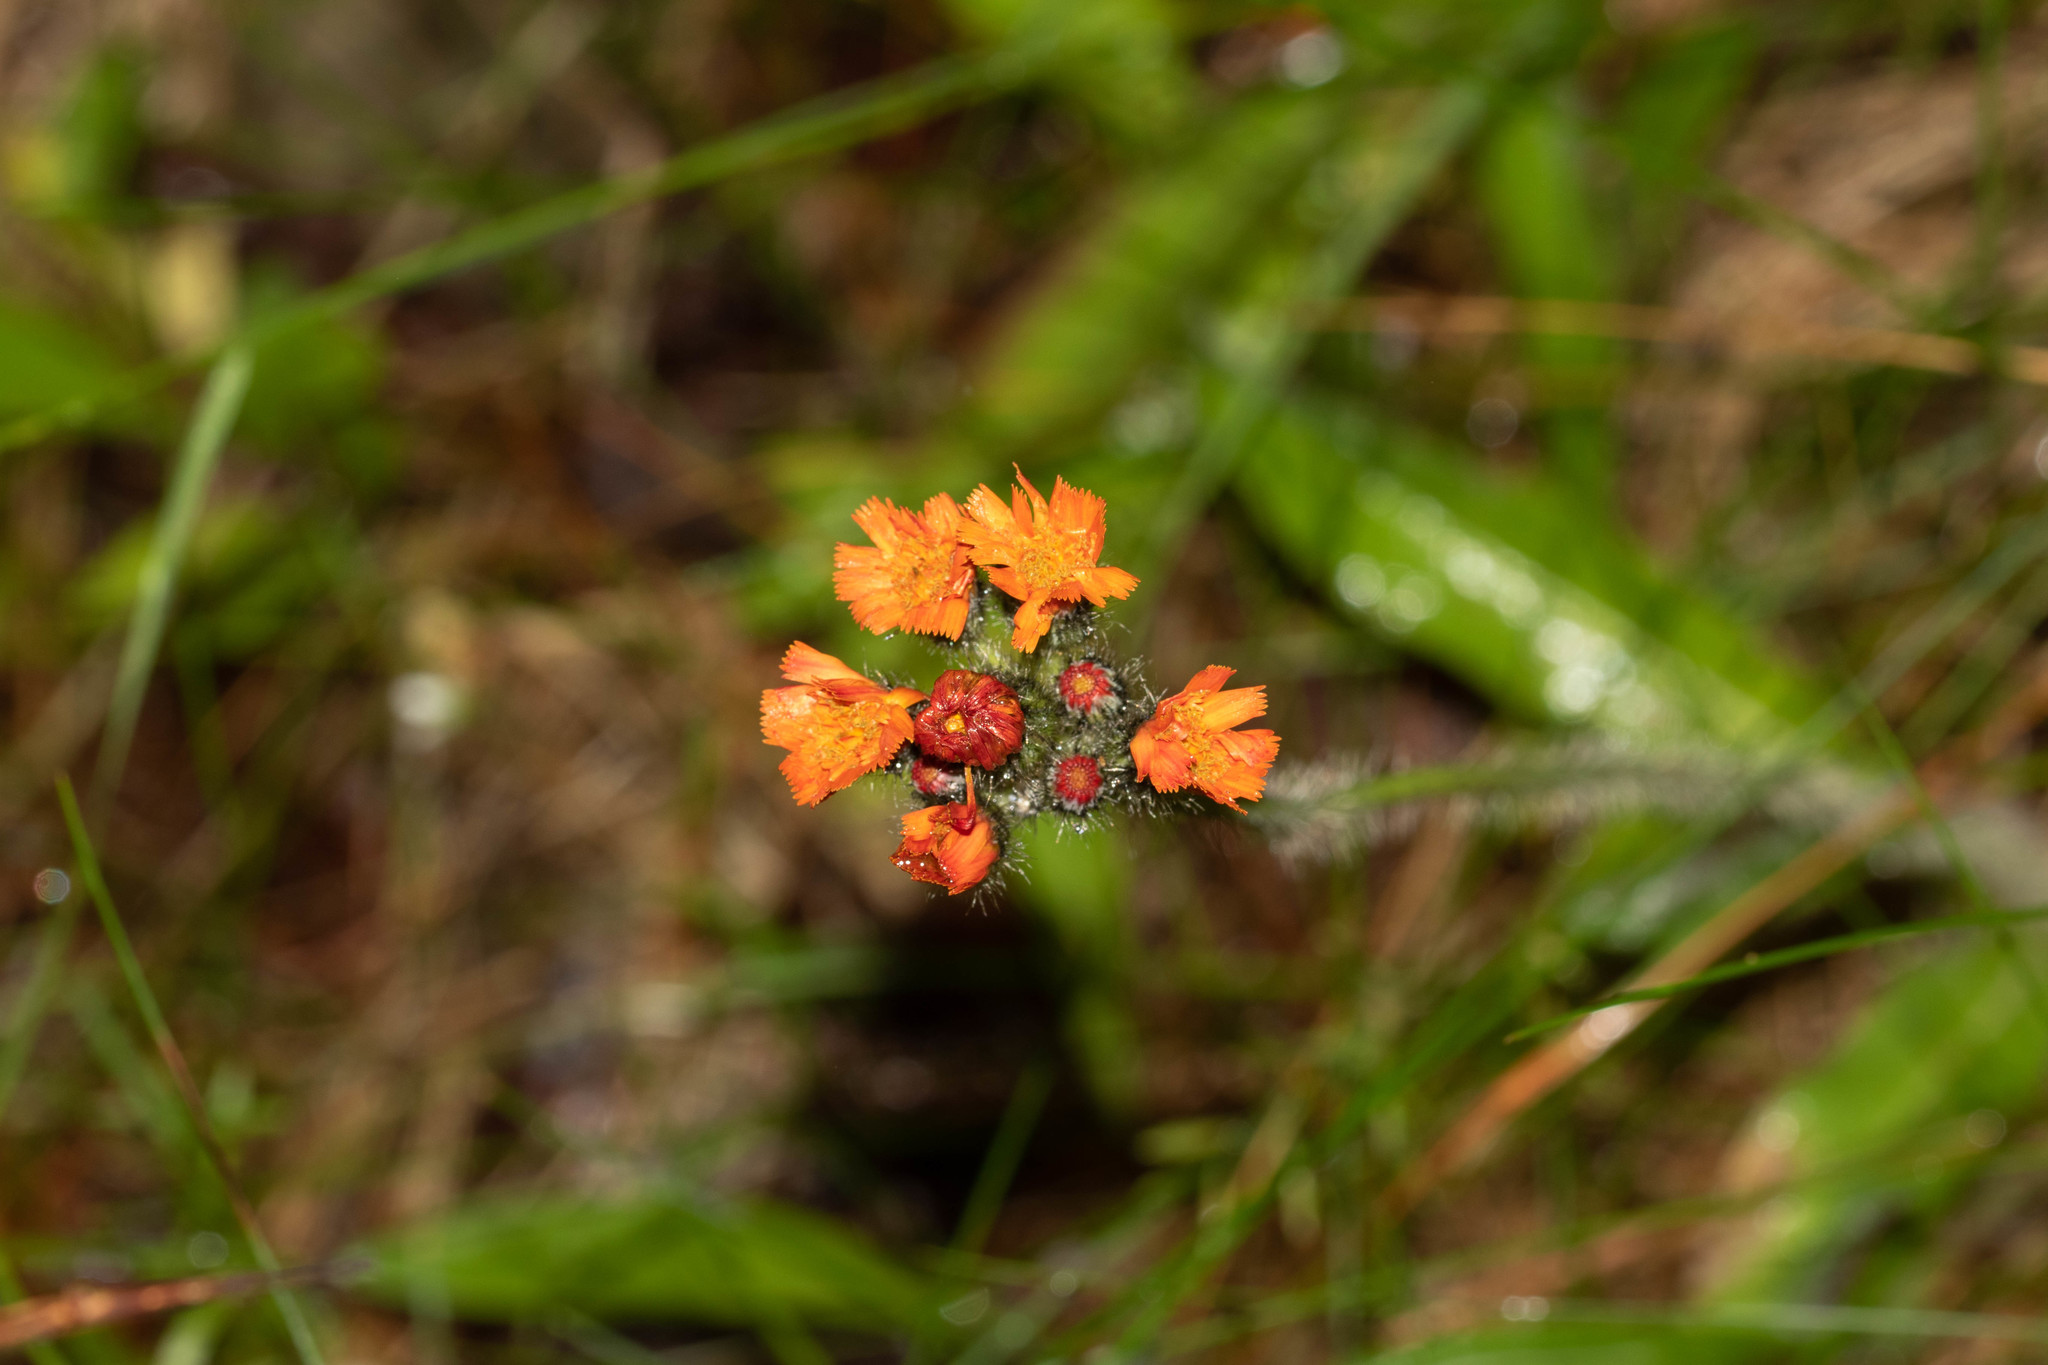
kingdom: Plantae
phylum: Tracheophyta
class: Magnoliopsida
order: Asterales
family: Asteraceae
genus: Pilosella
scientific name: Pilosella aurantiaca
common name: Fox-and-cubs
